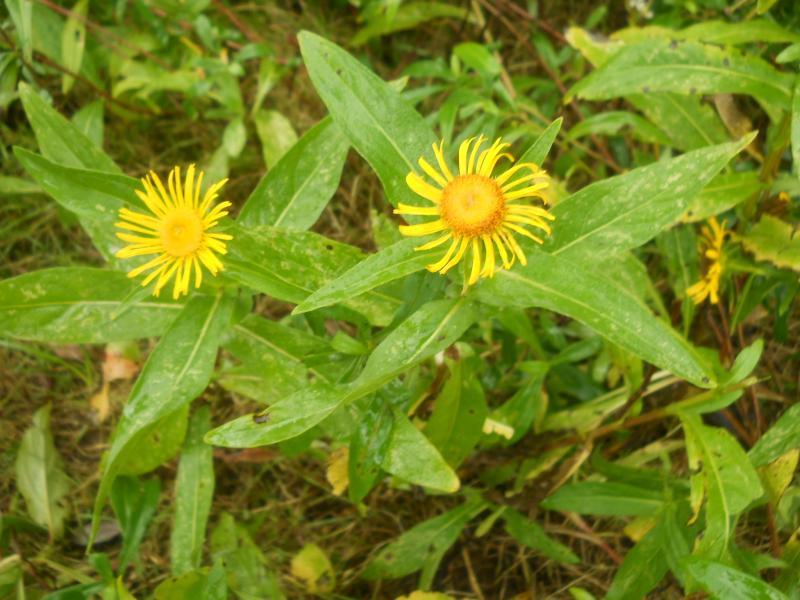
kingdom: Plantae
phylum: Tracheophyta
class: Magnoliopsida
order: Asterales
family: Asteraceae
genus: Pentanema
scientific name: Pentanema britannicum
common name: British elecampane
